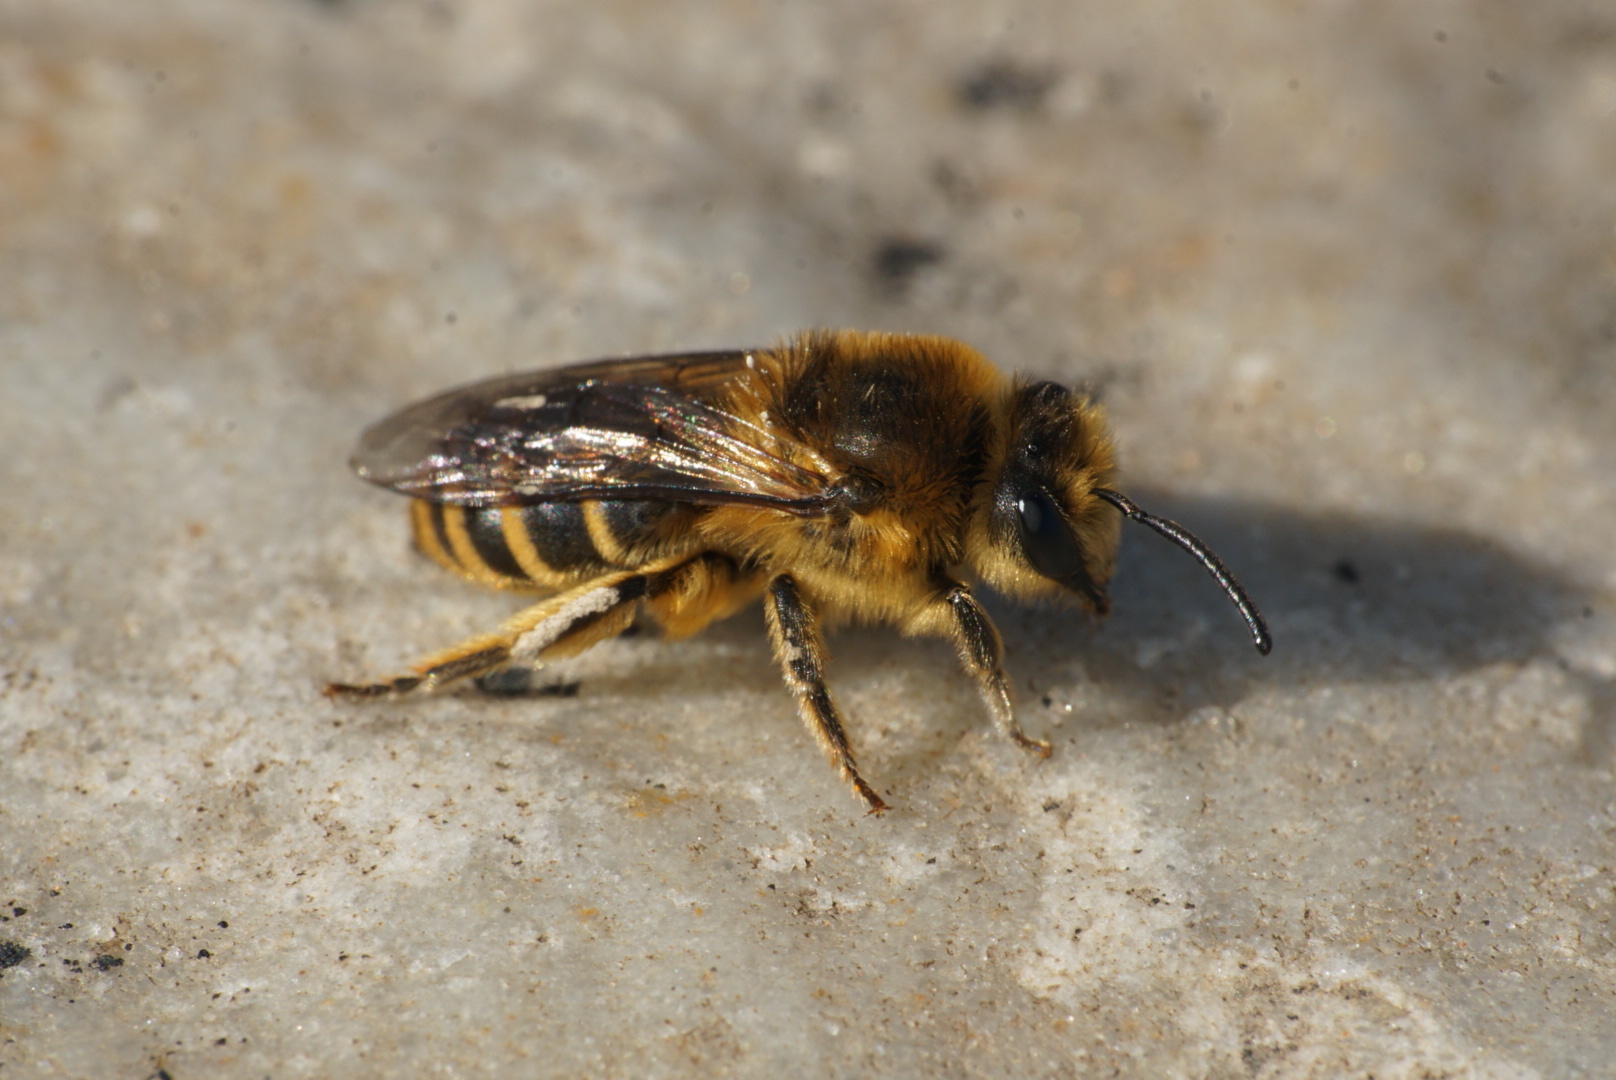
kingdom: Animalia
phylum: Arthropoda
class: Insecta
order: Hymenoptera
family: Colletidae
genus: Colletes
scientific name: Colletes inaequalis
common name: Unequal cellophane bee
